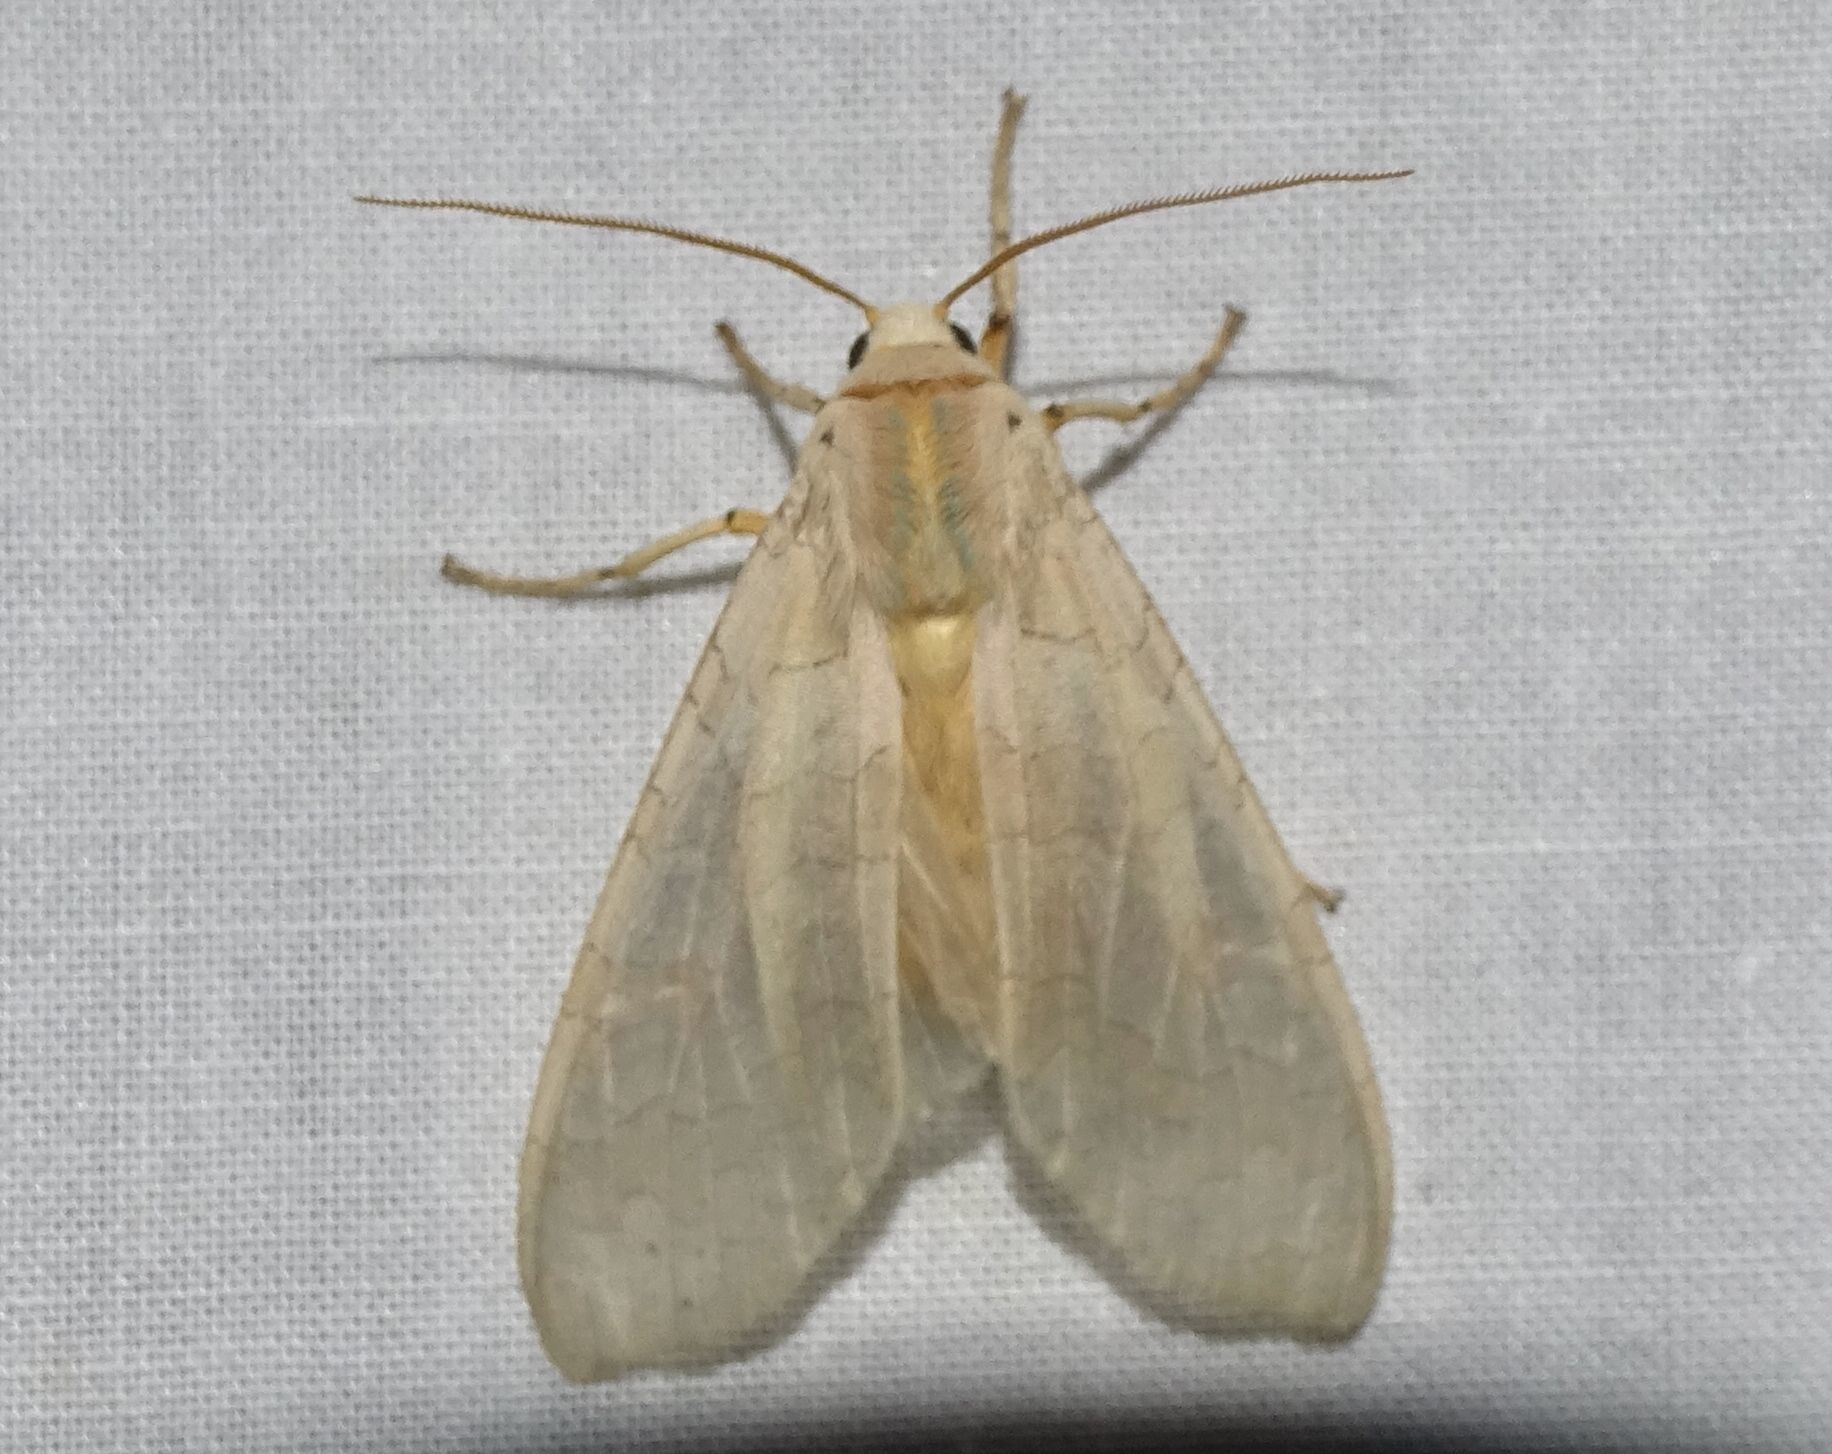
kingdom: Animalia
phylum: Arthropoda
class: Insecta
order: Lepidoptera
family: Erebidae
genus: Halysidota
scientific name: Halysidota tessellaris
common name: Banded tussock moth
